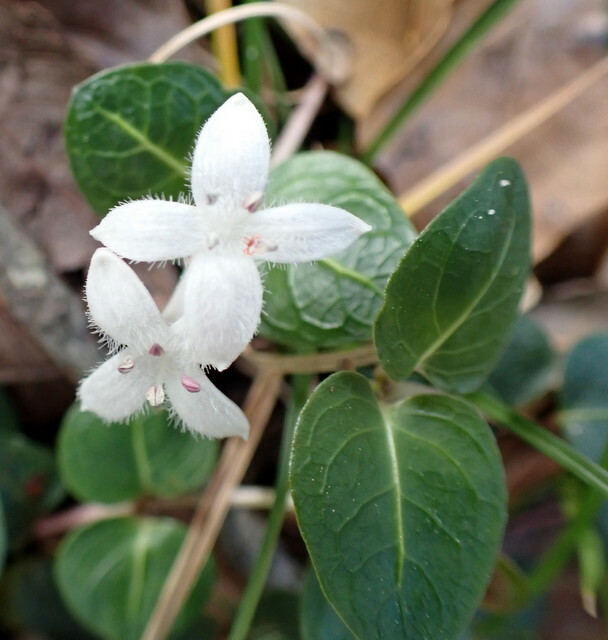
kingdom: Plantae
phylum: Tracheophyta
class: Magnoliopsida
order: Gentianales
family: Rubiaceae
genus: Mitchella
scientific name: Mitchella repens
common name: Partridge-berry
